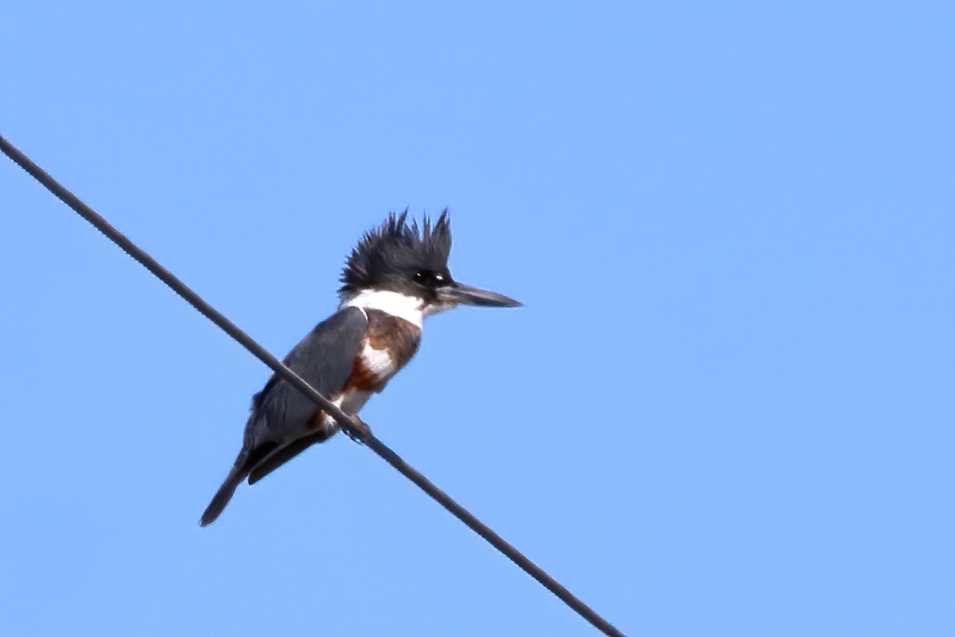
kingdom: Animalia
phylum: Chordata
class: Aves
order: Coraciiformes
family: Alcedinidae
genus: Megaceryle
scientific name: Megaceryle alcyon
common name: Belted kingfisher
